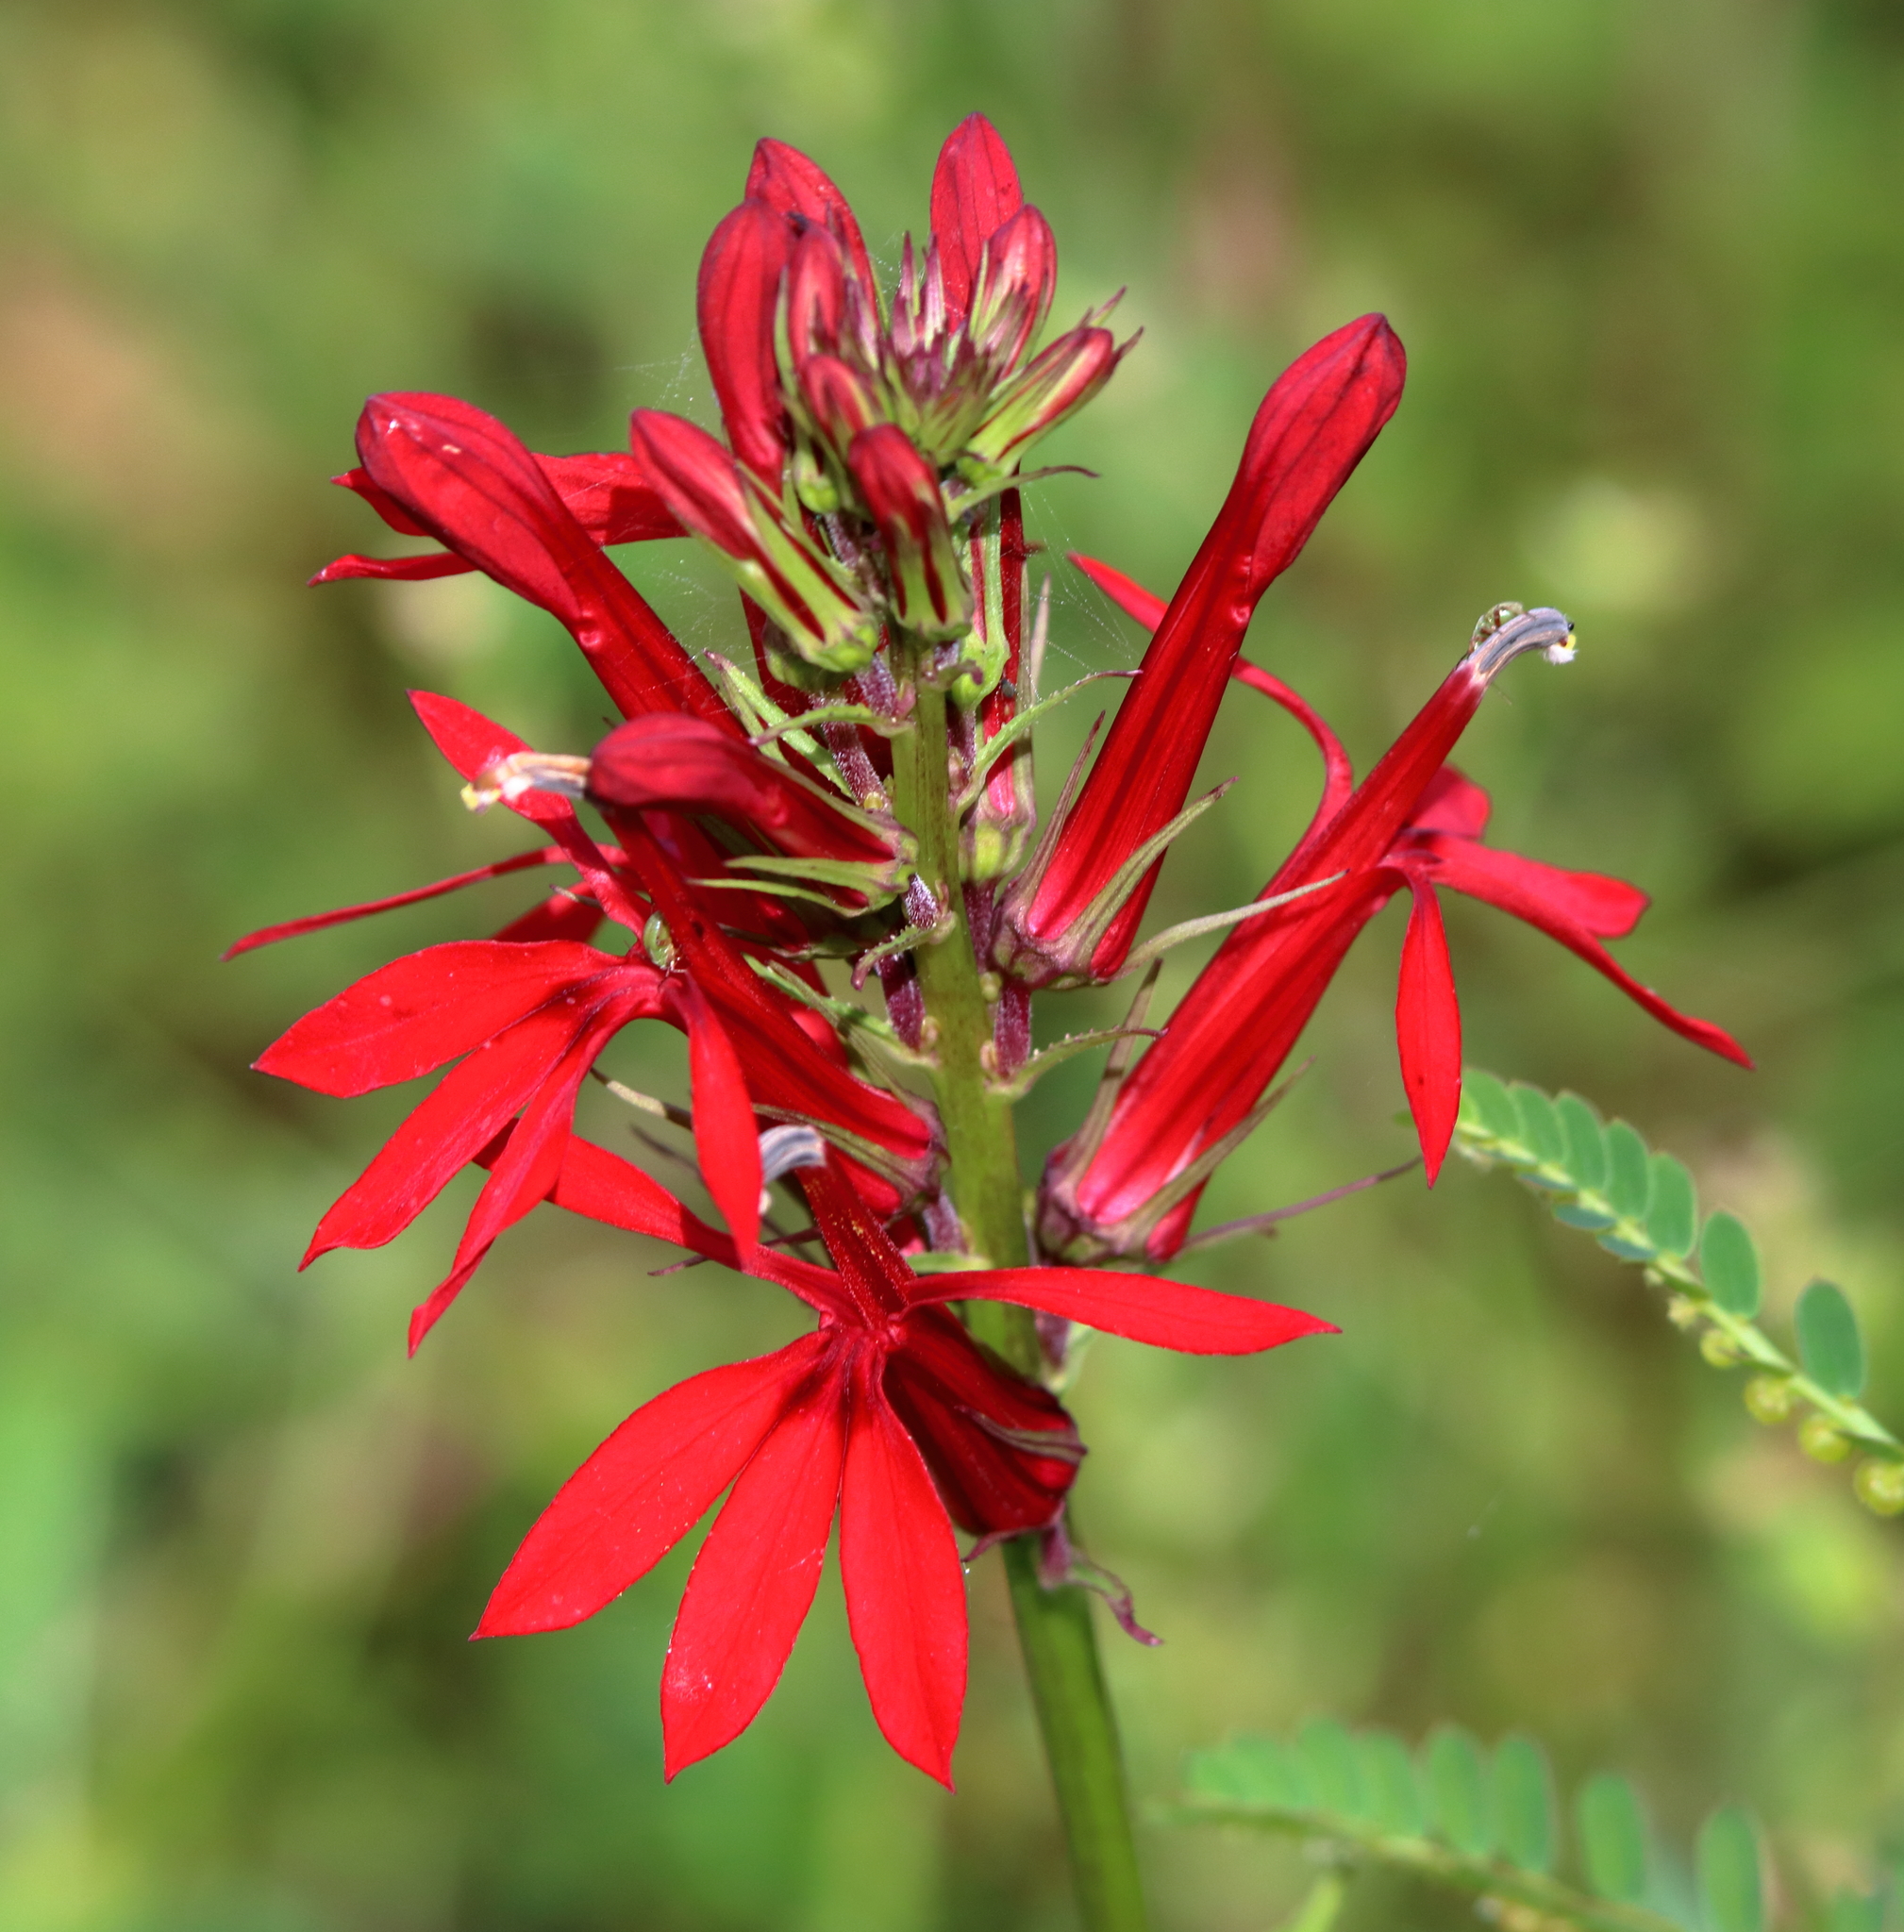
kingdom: Plantae
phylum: Tracheophyta
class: Magnoliopsida
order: Asterales
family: Campanulaceae
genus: Lobelia
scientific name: Lobelia cardinalis
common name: Cardinal flower
